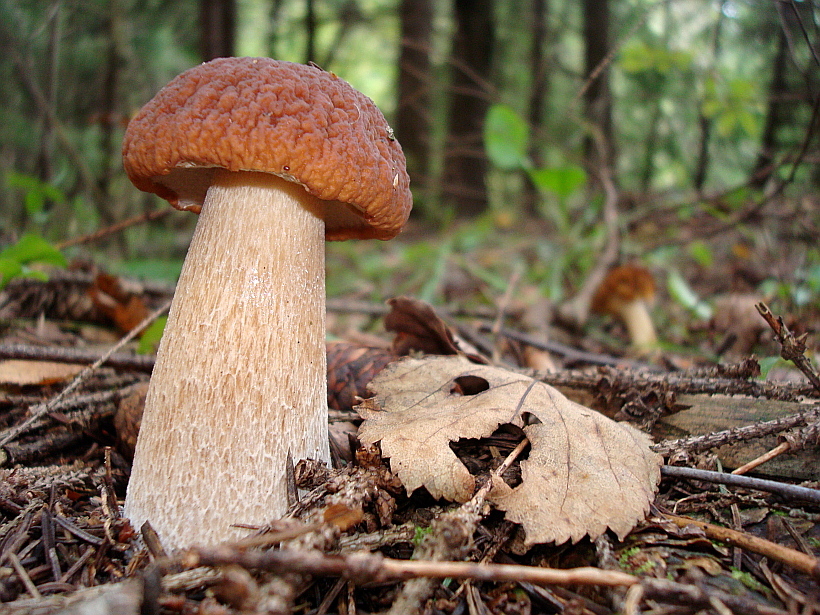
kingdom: Fungi
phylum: Basidiomycota
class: Agaricomycetes
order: Boletales
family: Boletaceae
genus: Boletus
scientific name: Boletus edulis
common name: Cep
